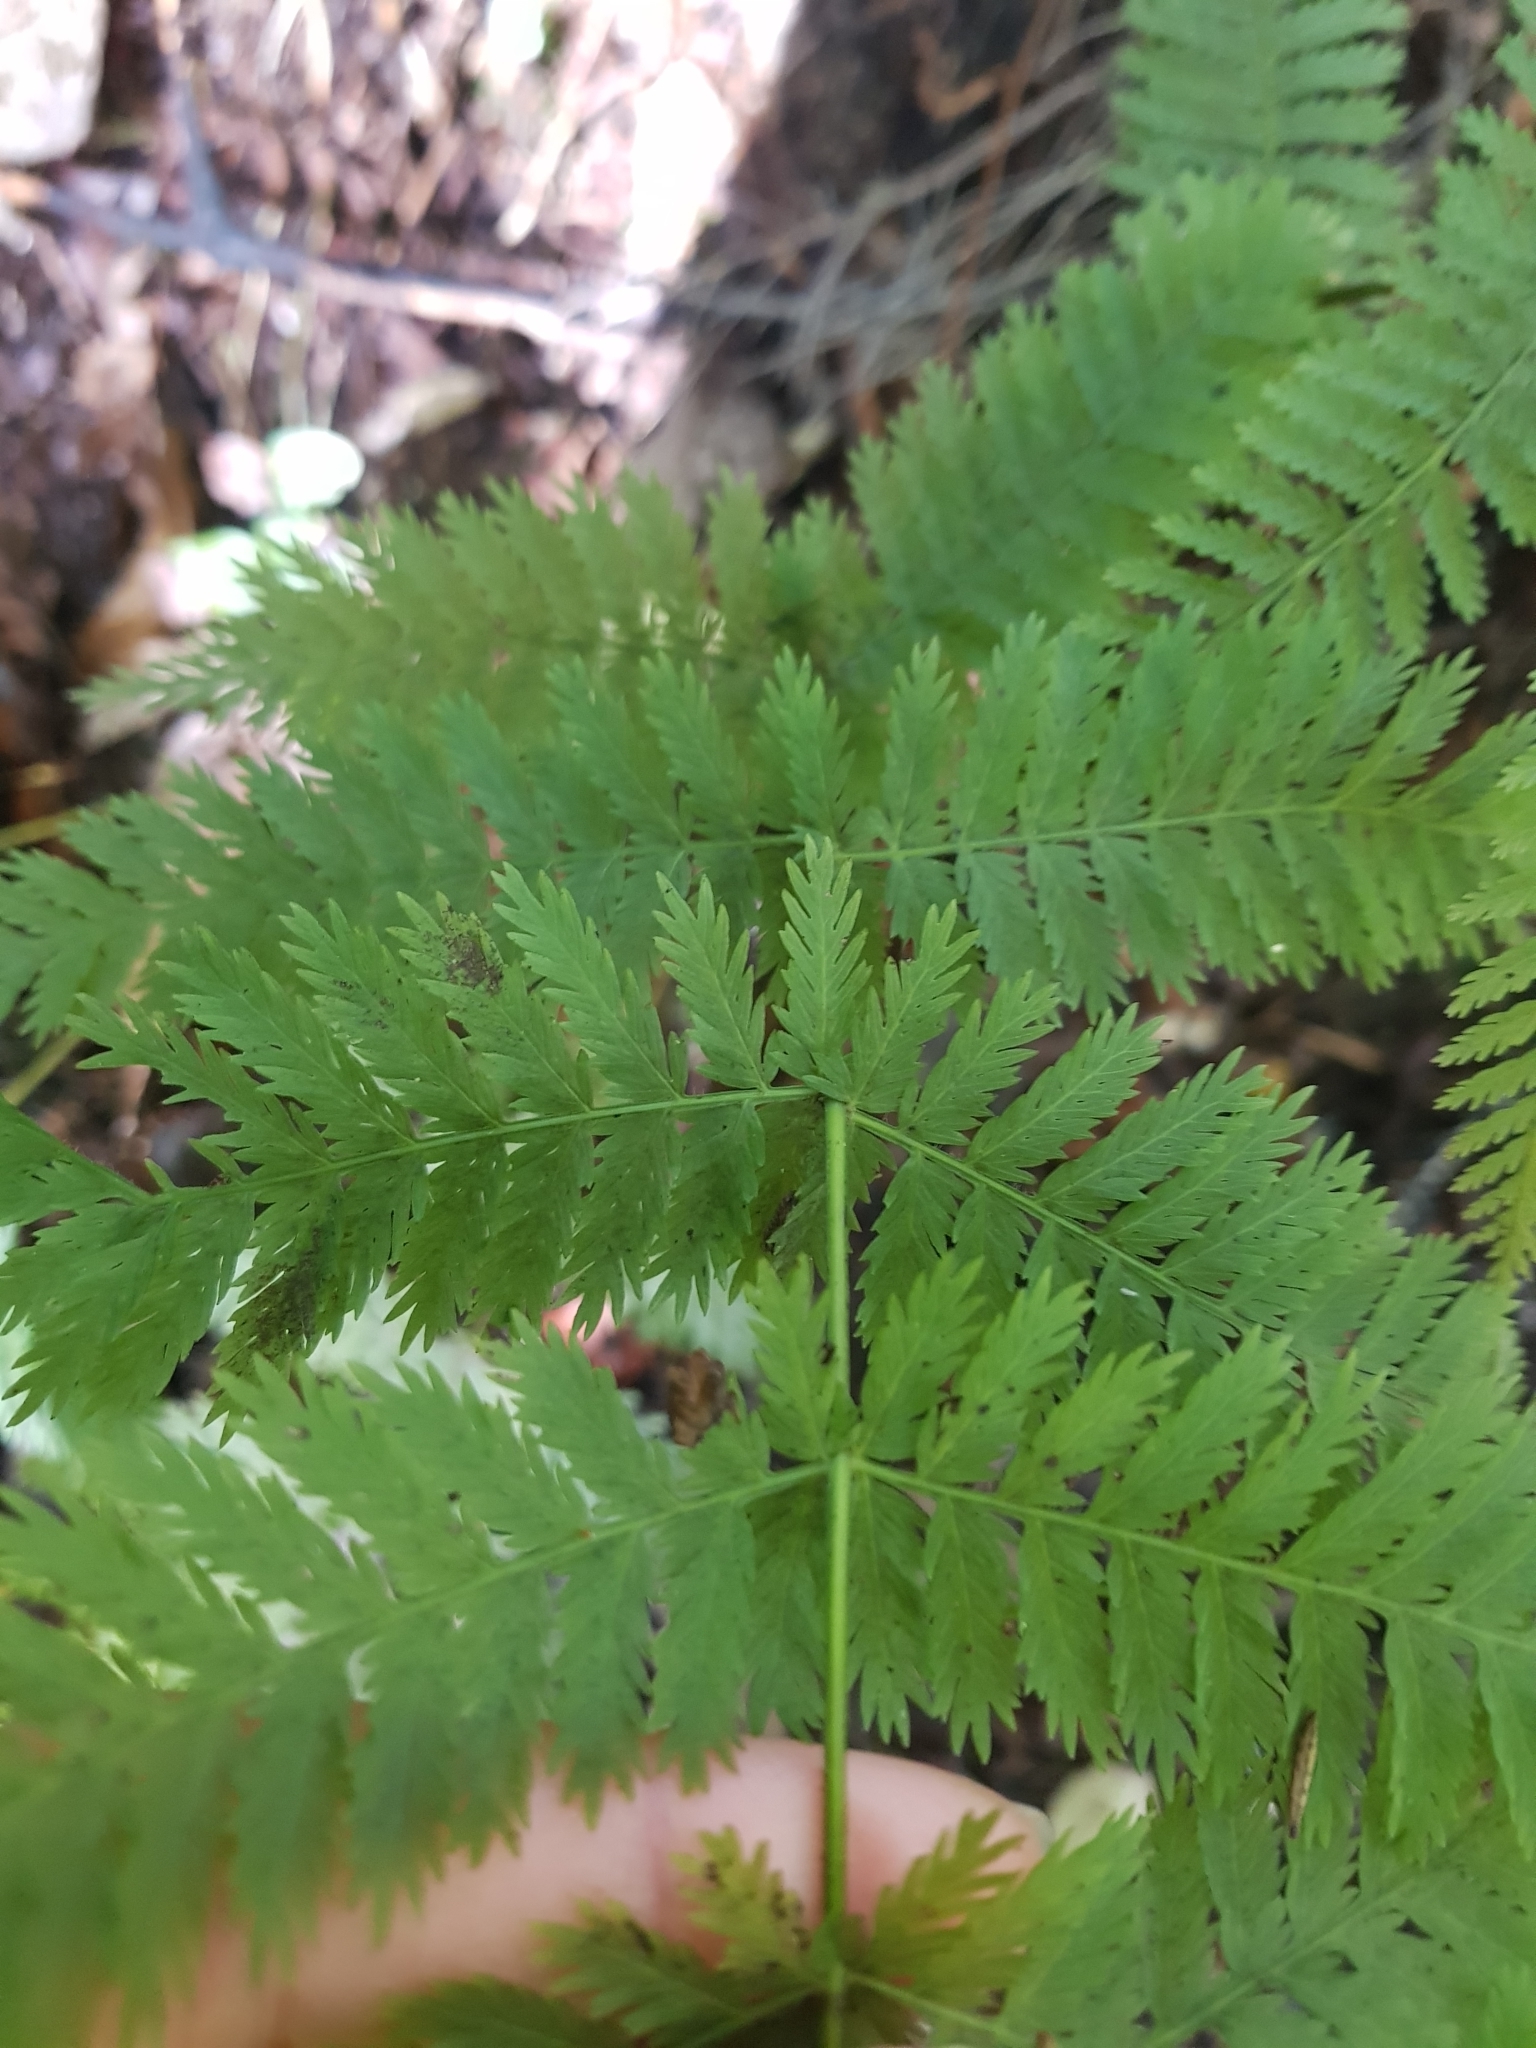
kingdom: Plantae
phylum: Tracheophyta
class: Polypodiopsida
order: Osmundales
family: Osmundaceae
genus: Leptopteris
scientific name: Leptopteris hymenophylloides
